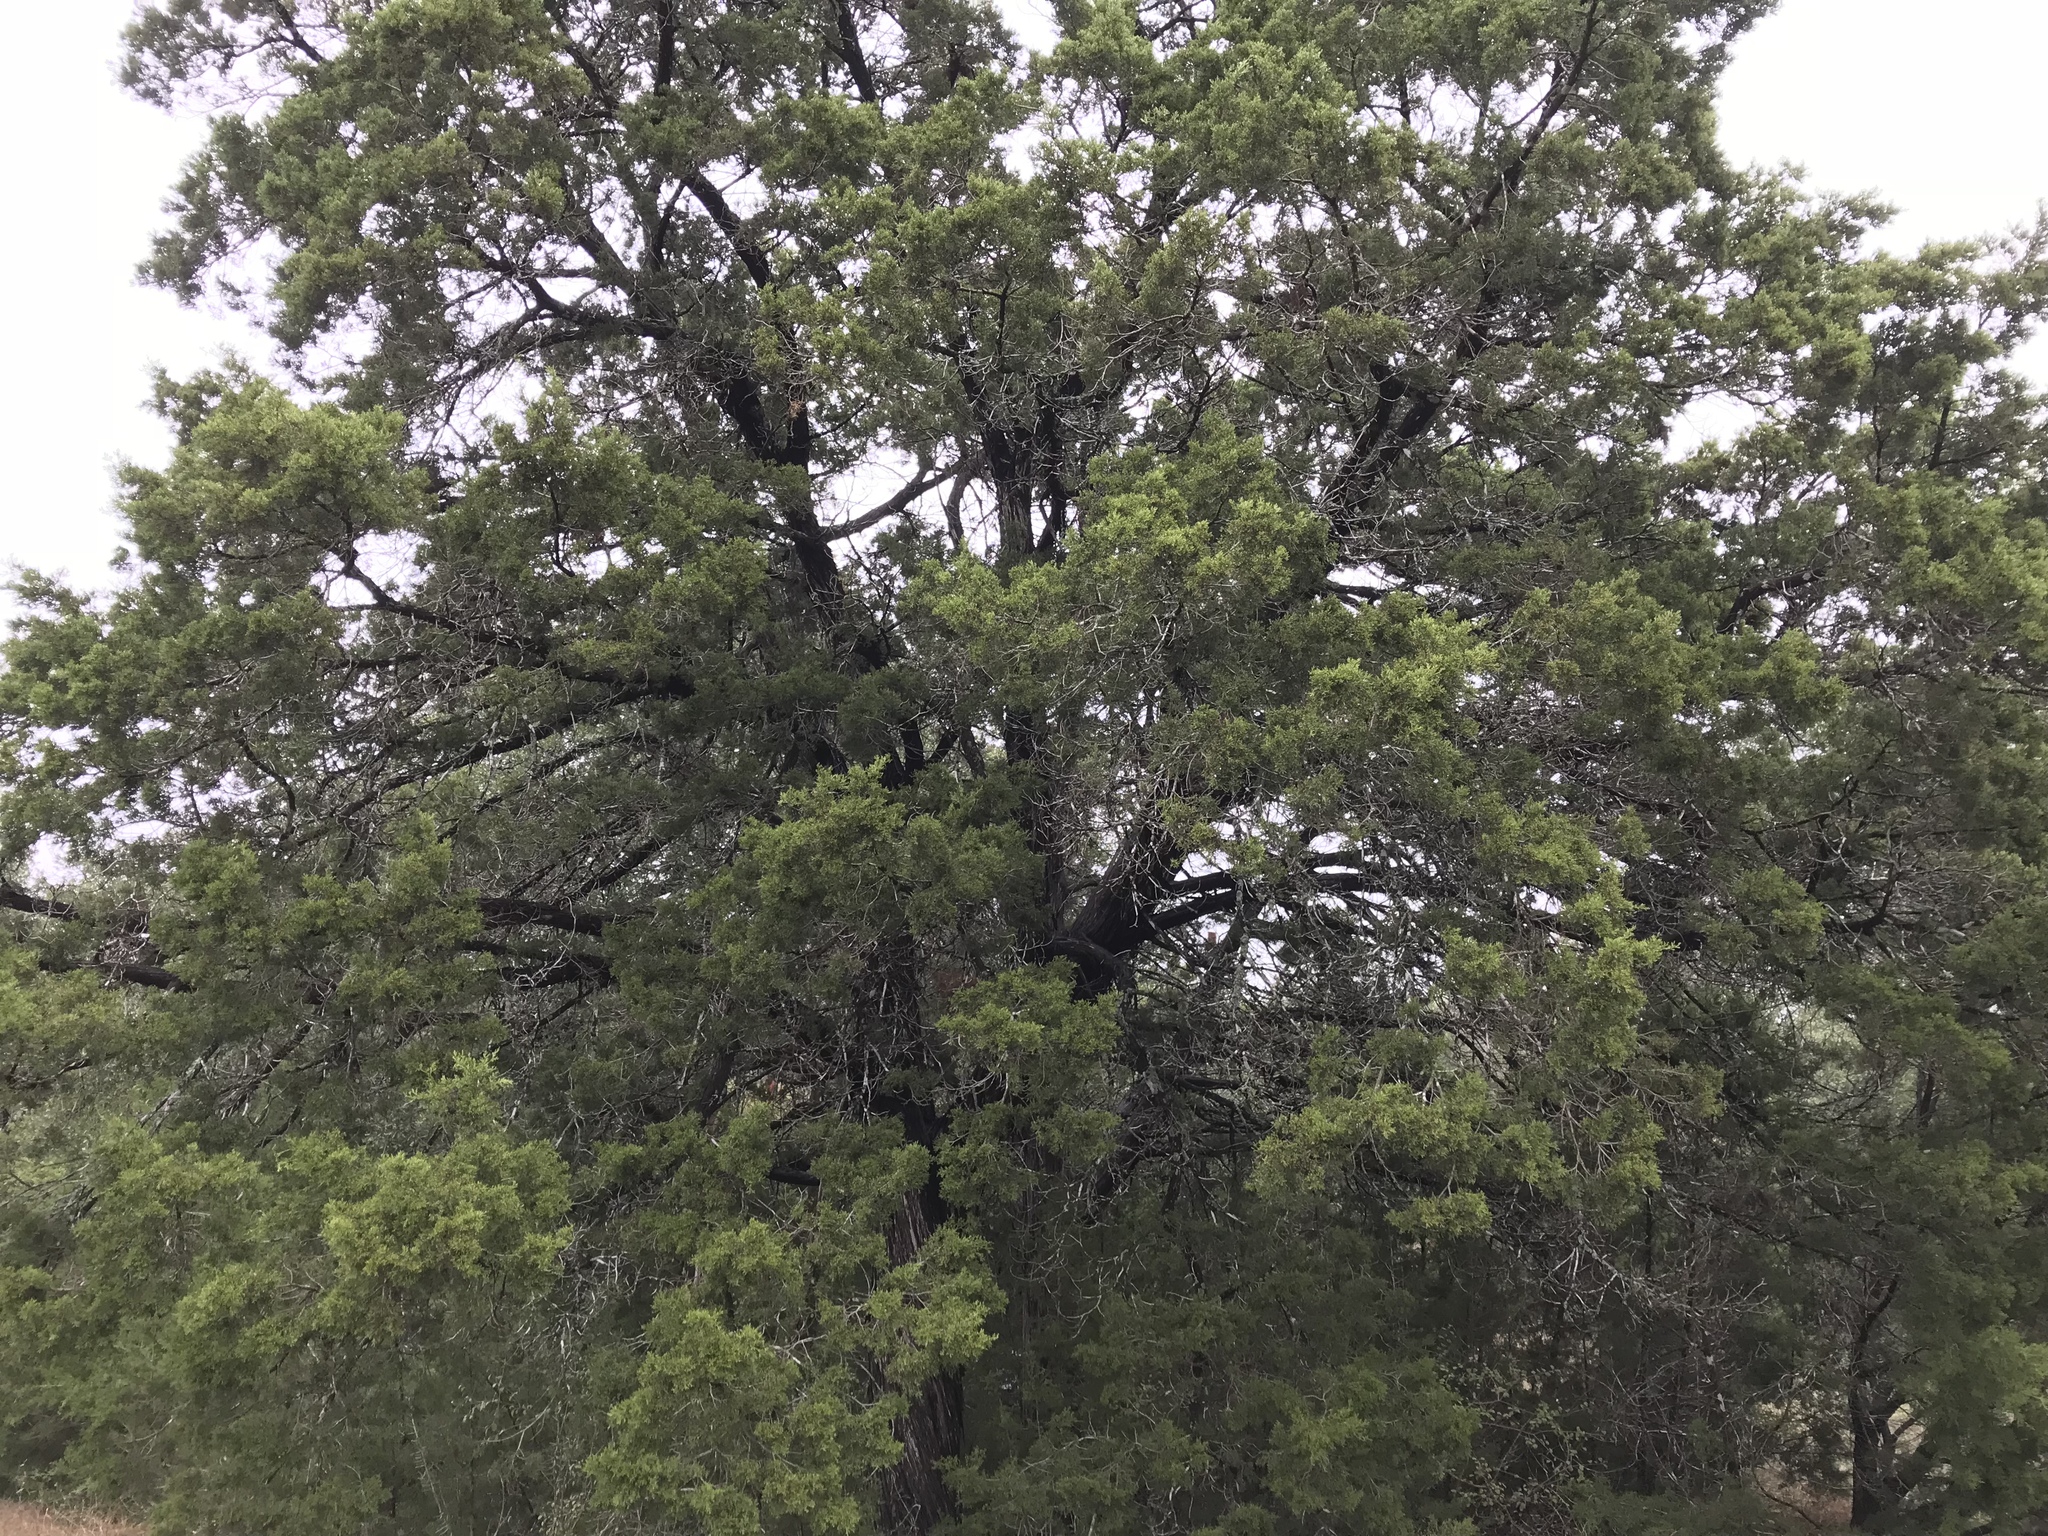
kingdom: Plantae
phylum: Tracheophyta
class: Pinopsida
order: Pinales
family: Cupressaceae
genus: Juniperus
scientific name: Juniperus ashei
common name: Mexican juniper
